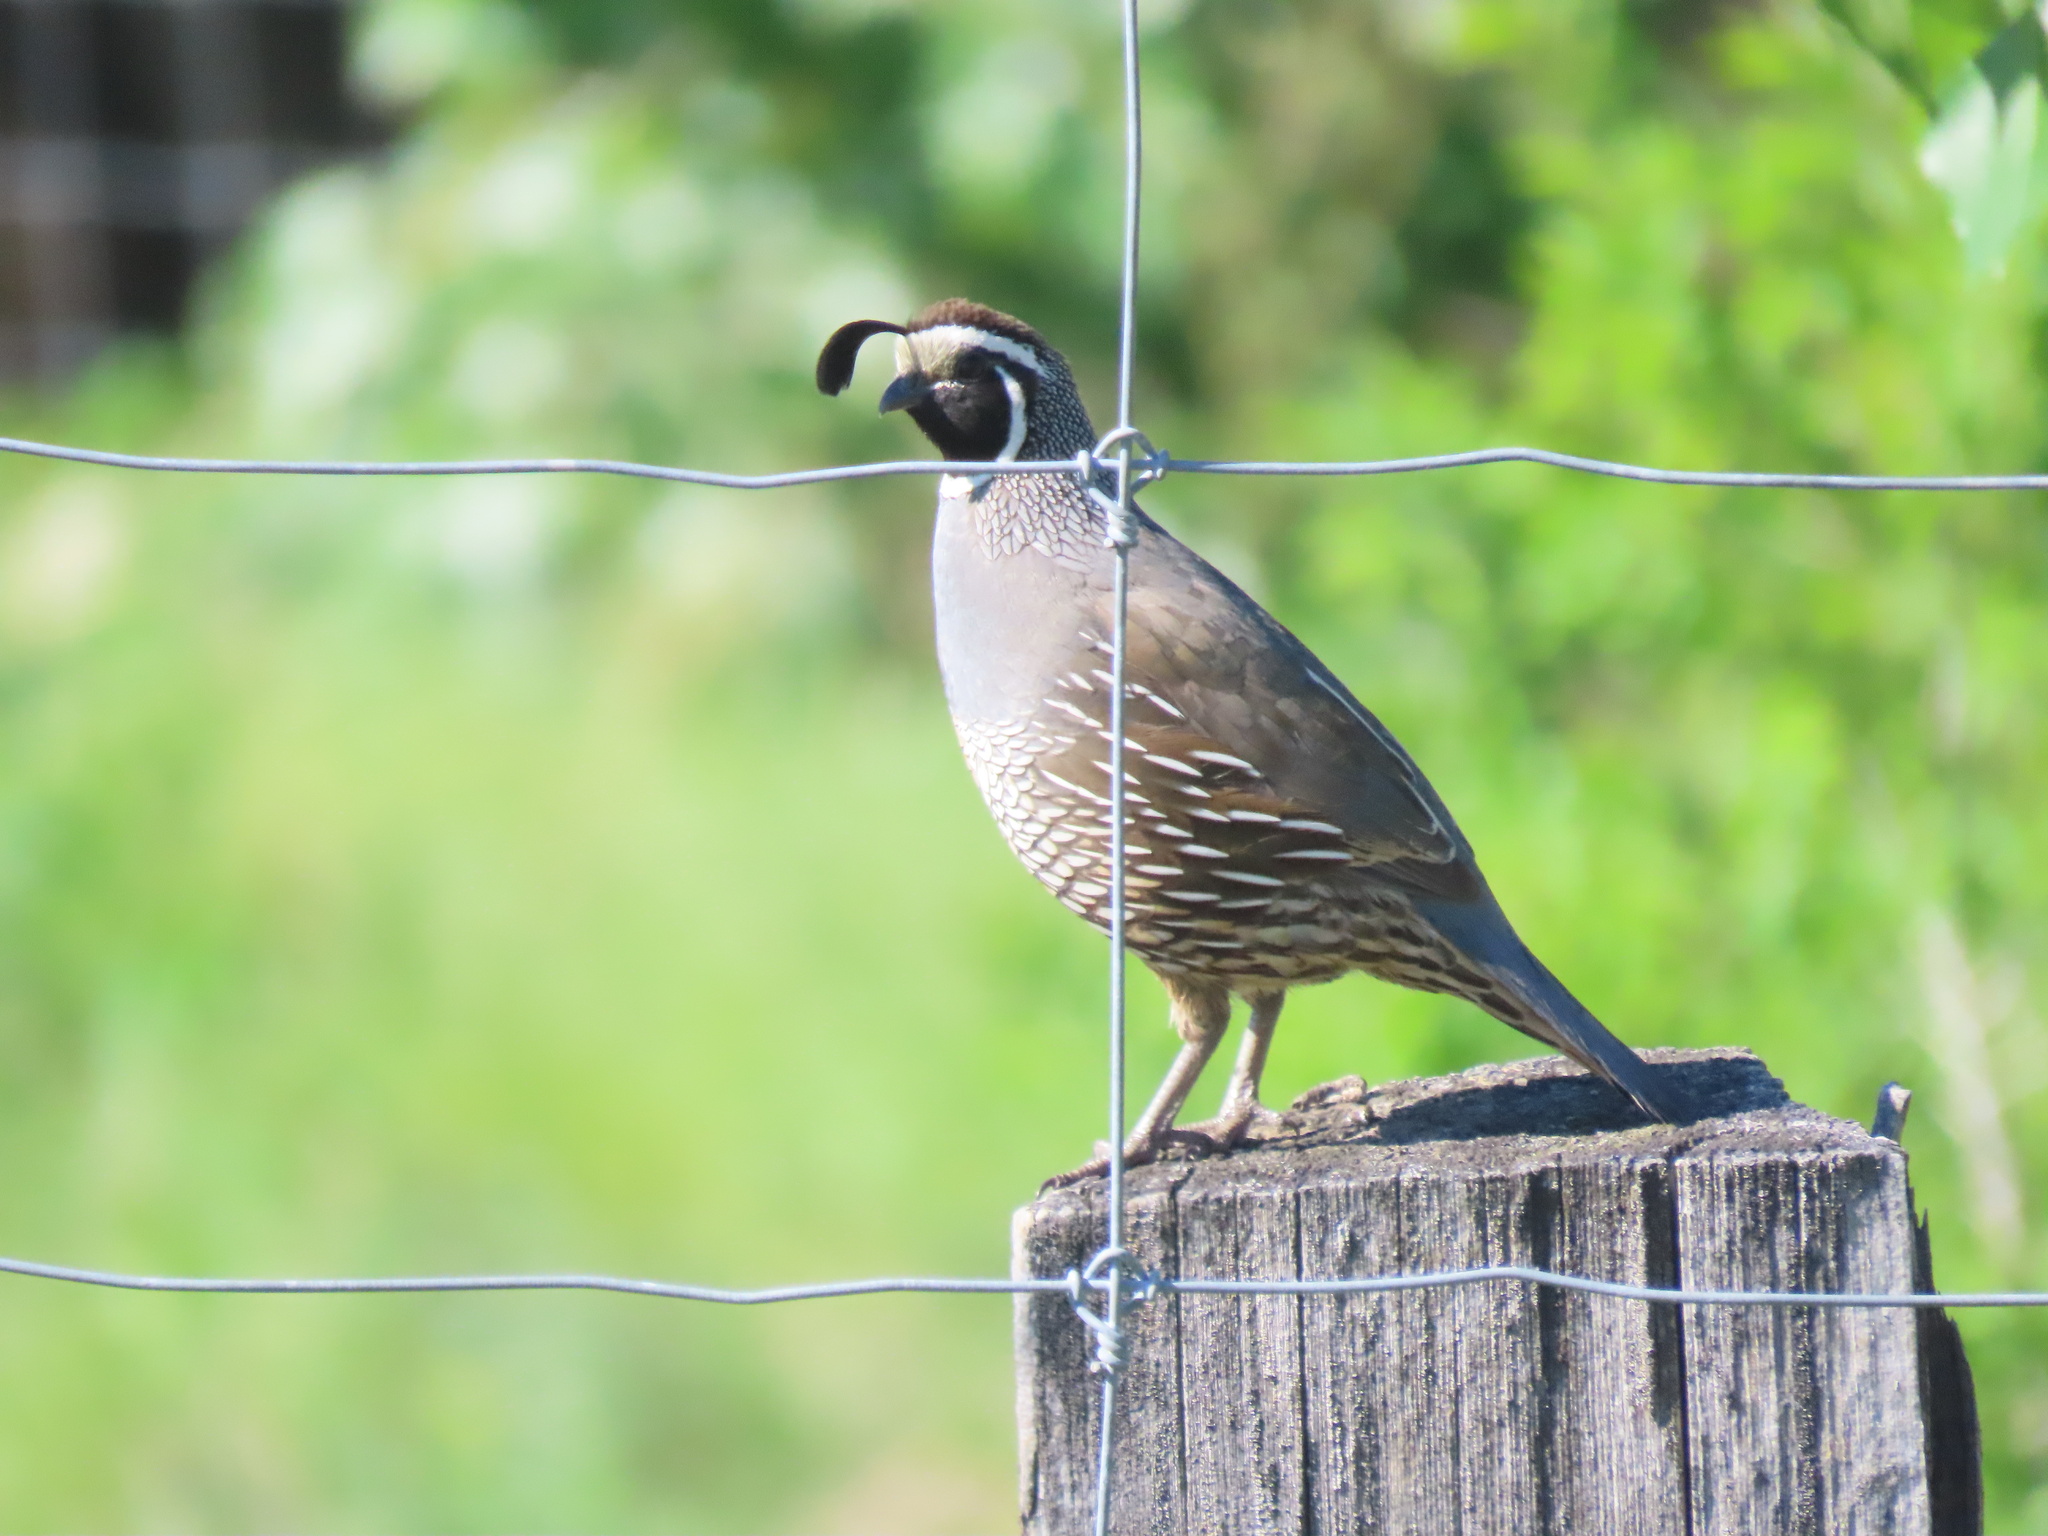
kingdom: Animalia
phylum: Chordata
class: Aves
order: Galliformes
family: Odontophoridae
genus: Callipepla
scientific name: Callipepla californica
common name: California quail
